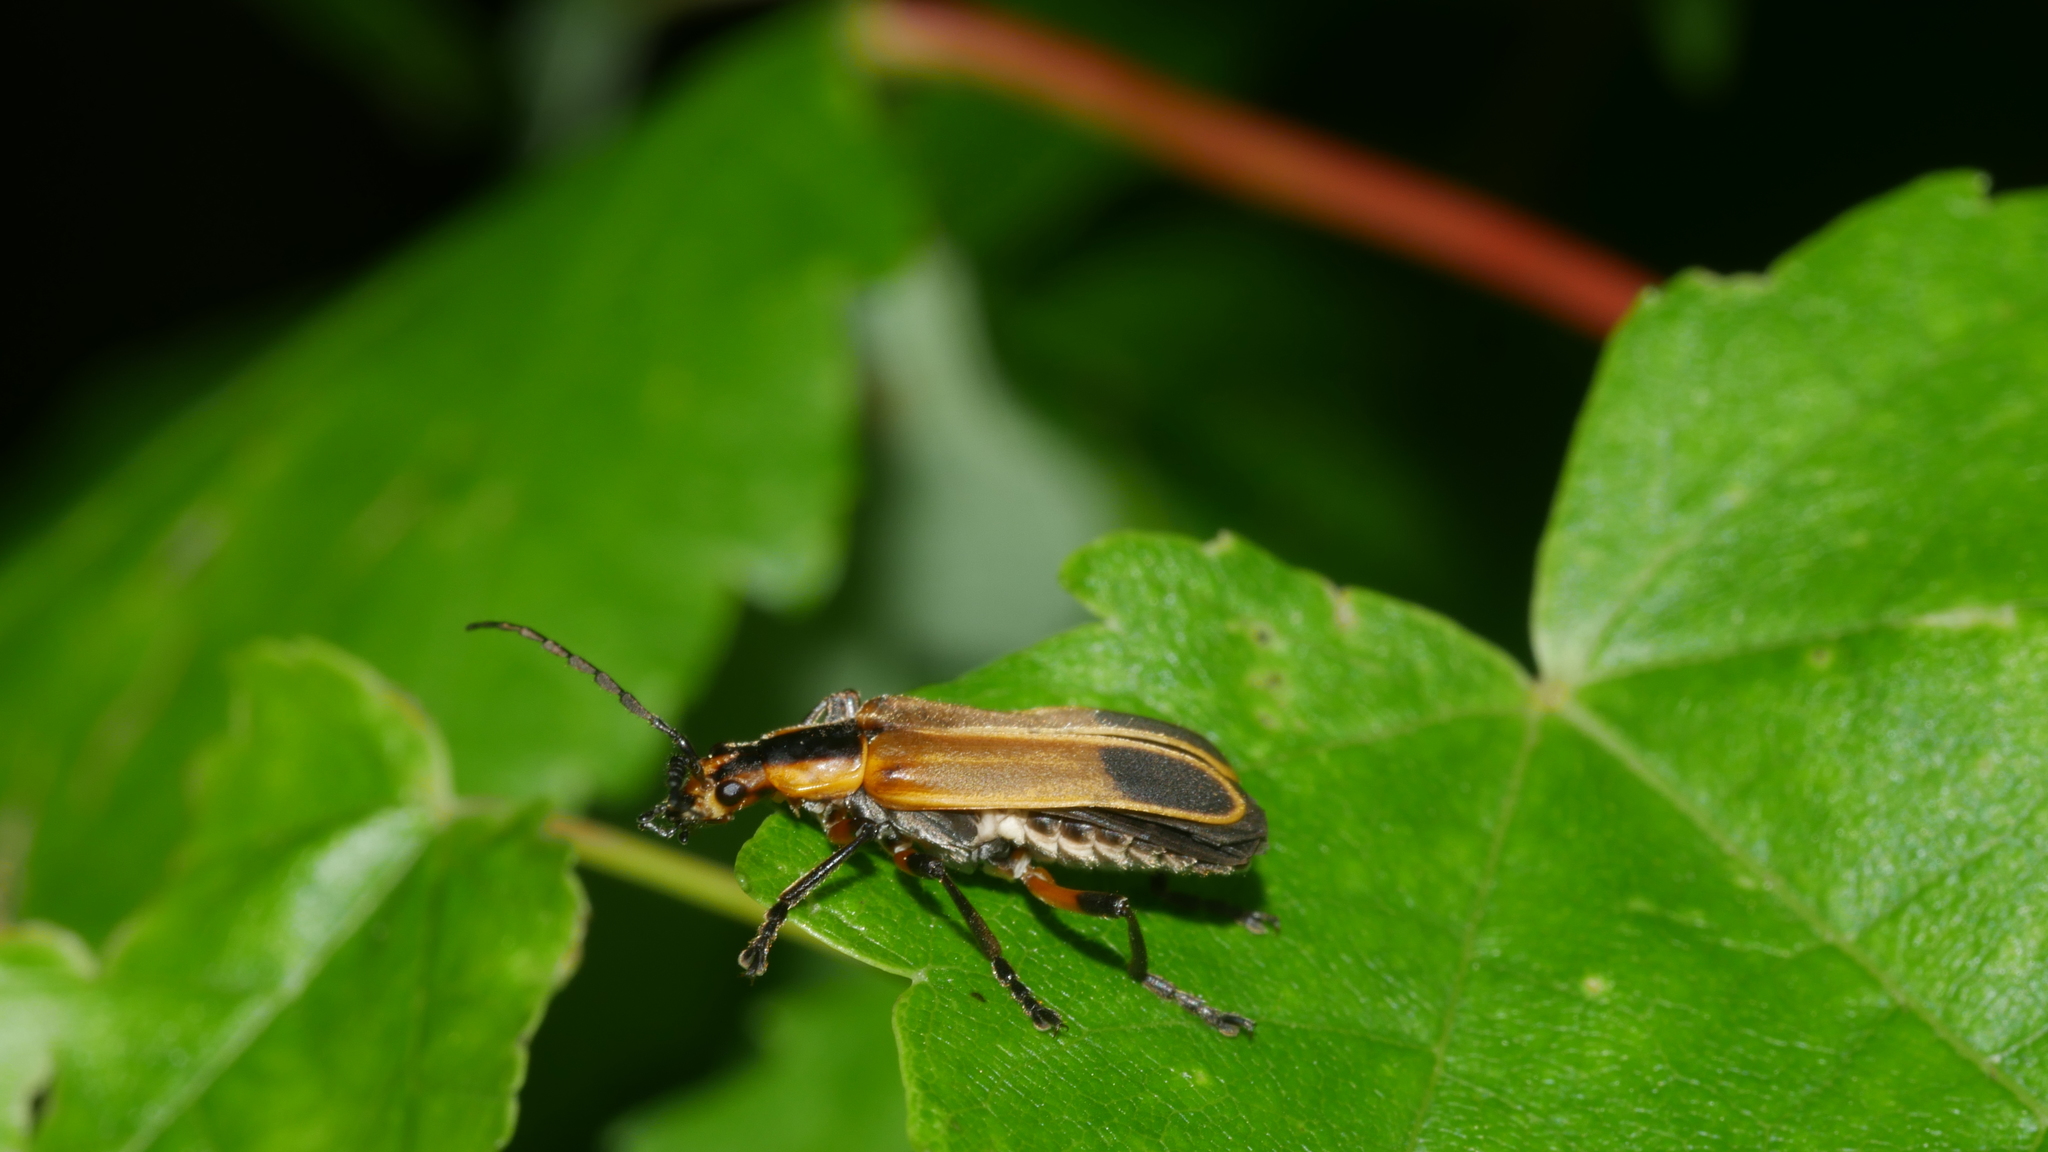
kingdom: Animalia
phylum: Arthropoda
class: Insecta
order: Coleoptera
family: Cantharidae
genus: Chauliognathus
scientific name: Chauliognathus marginatus
